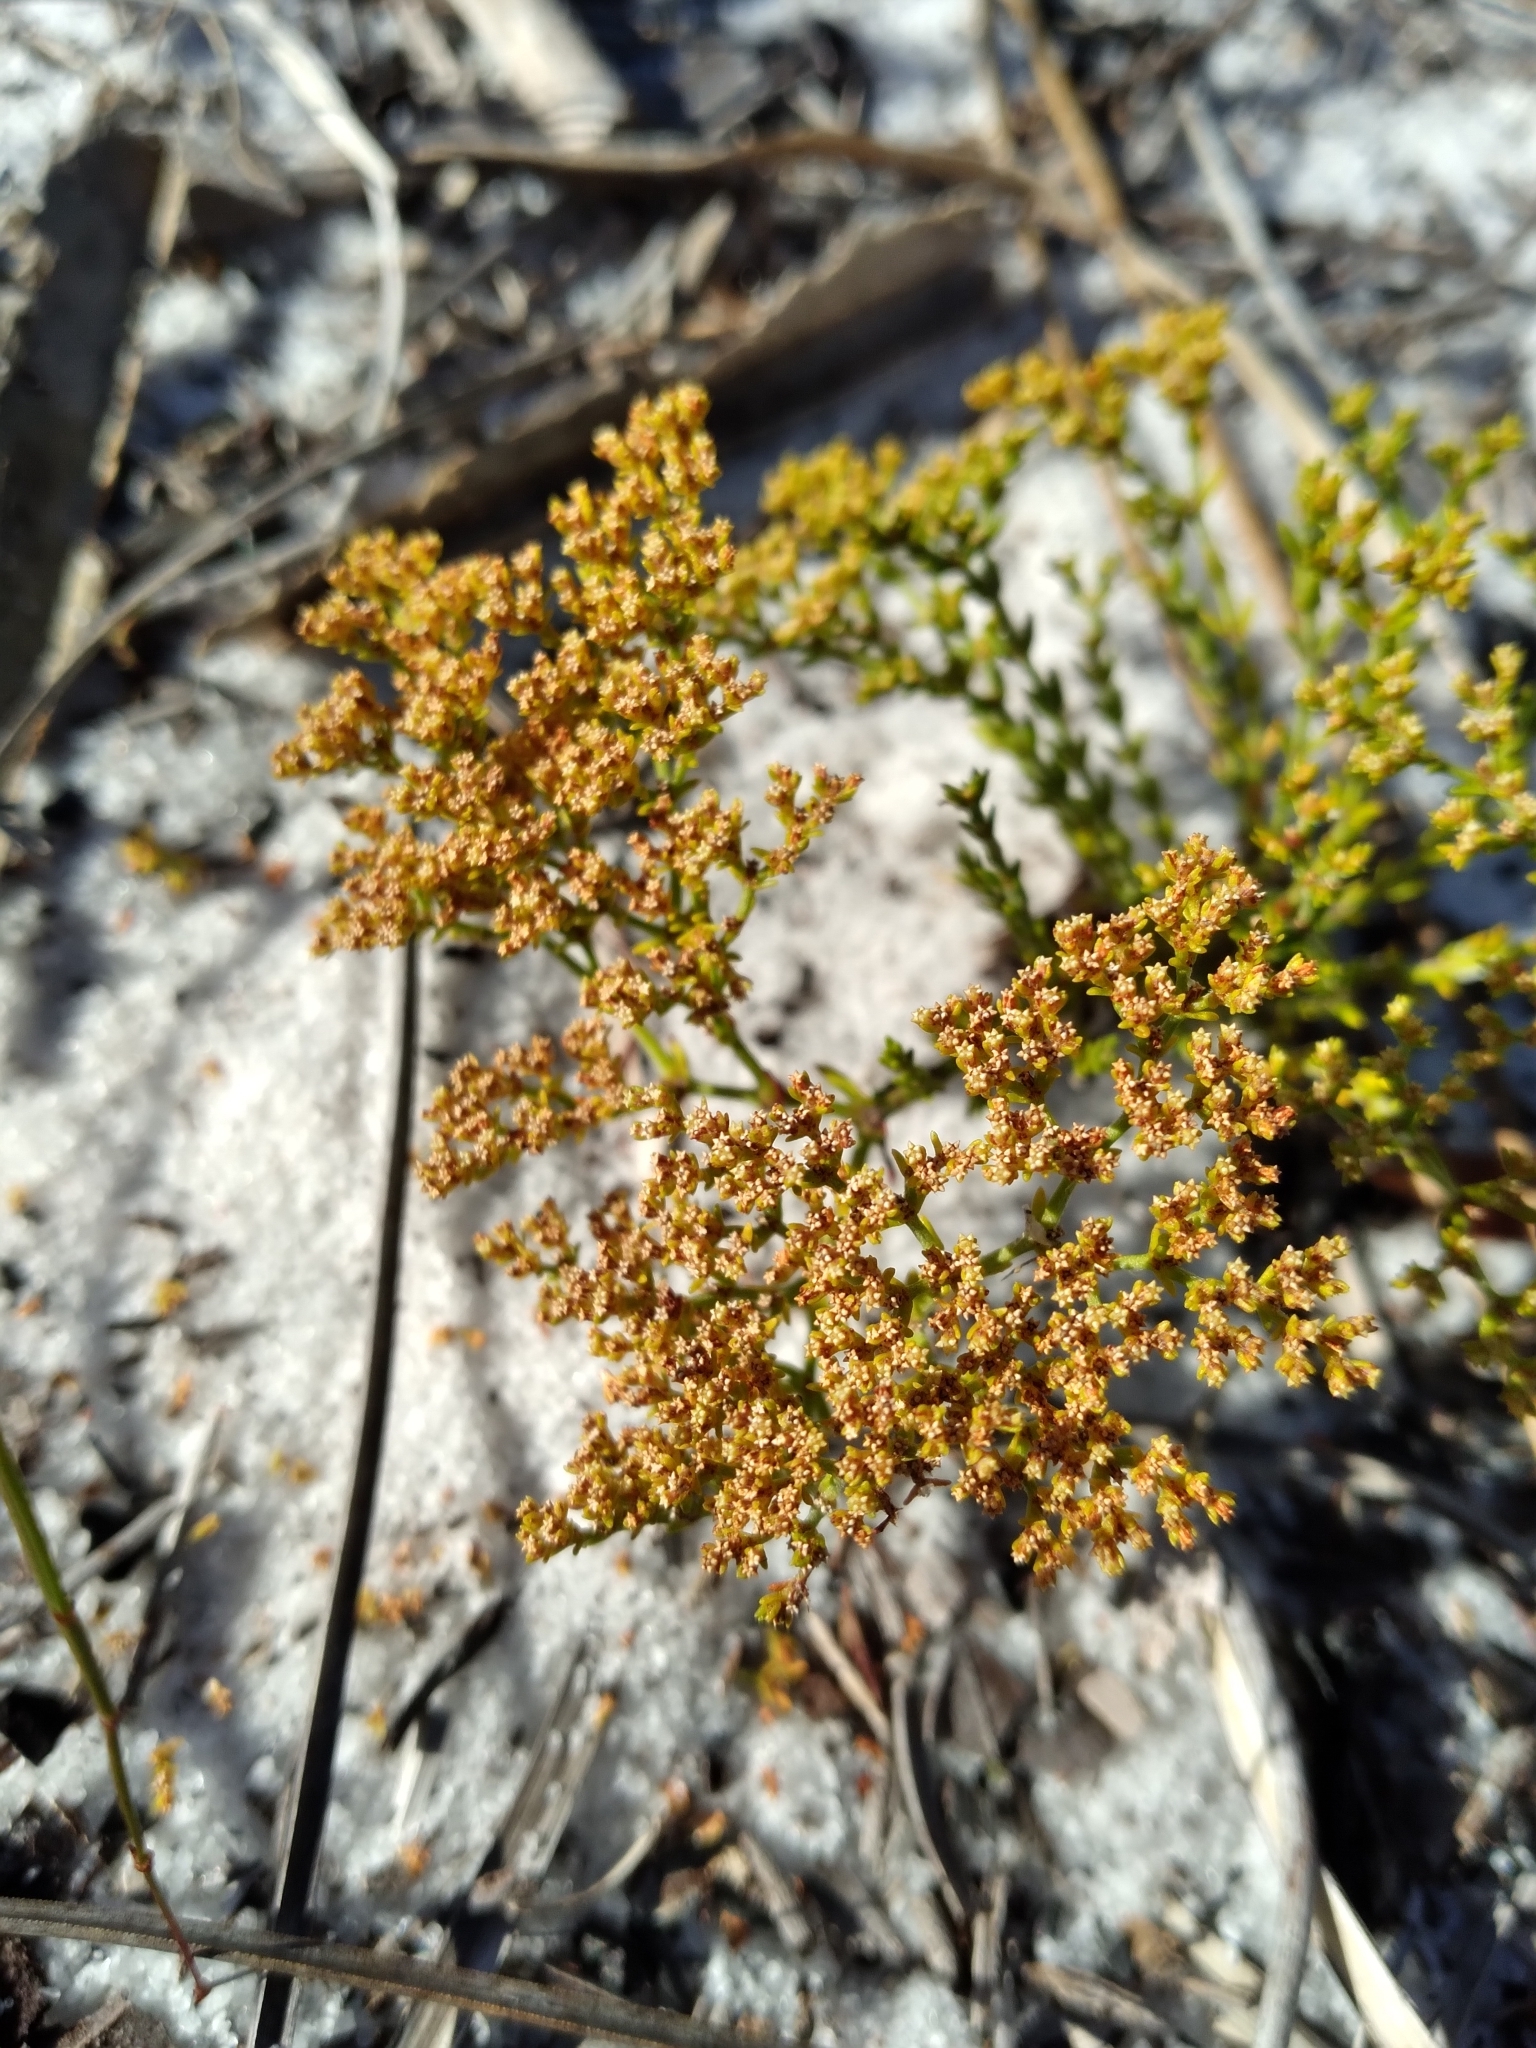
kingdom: Plantae
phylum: Tracheophyta
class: Magnoliopsida
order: Caryophyllales
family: Caryophyllaceae
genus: Paronychia
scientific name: Paronychia chartacea
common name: Paper nailwort
